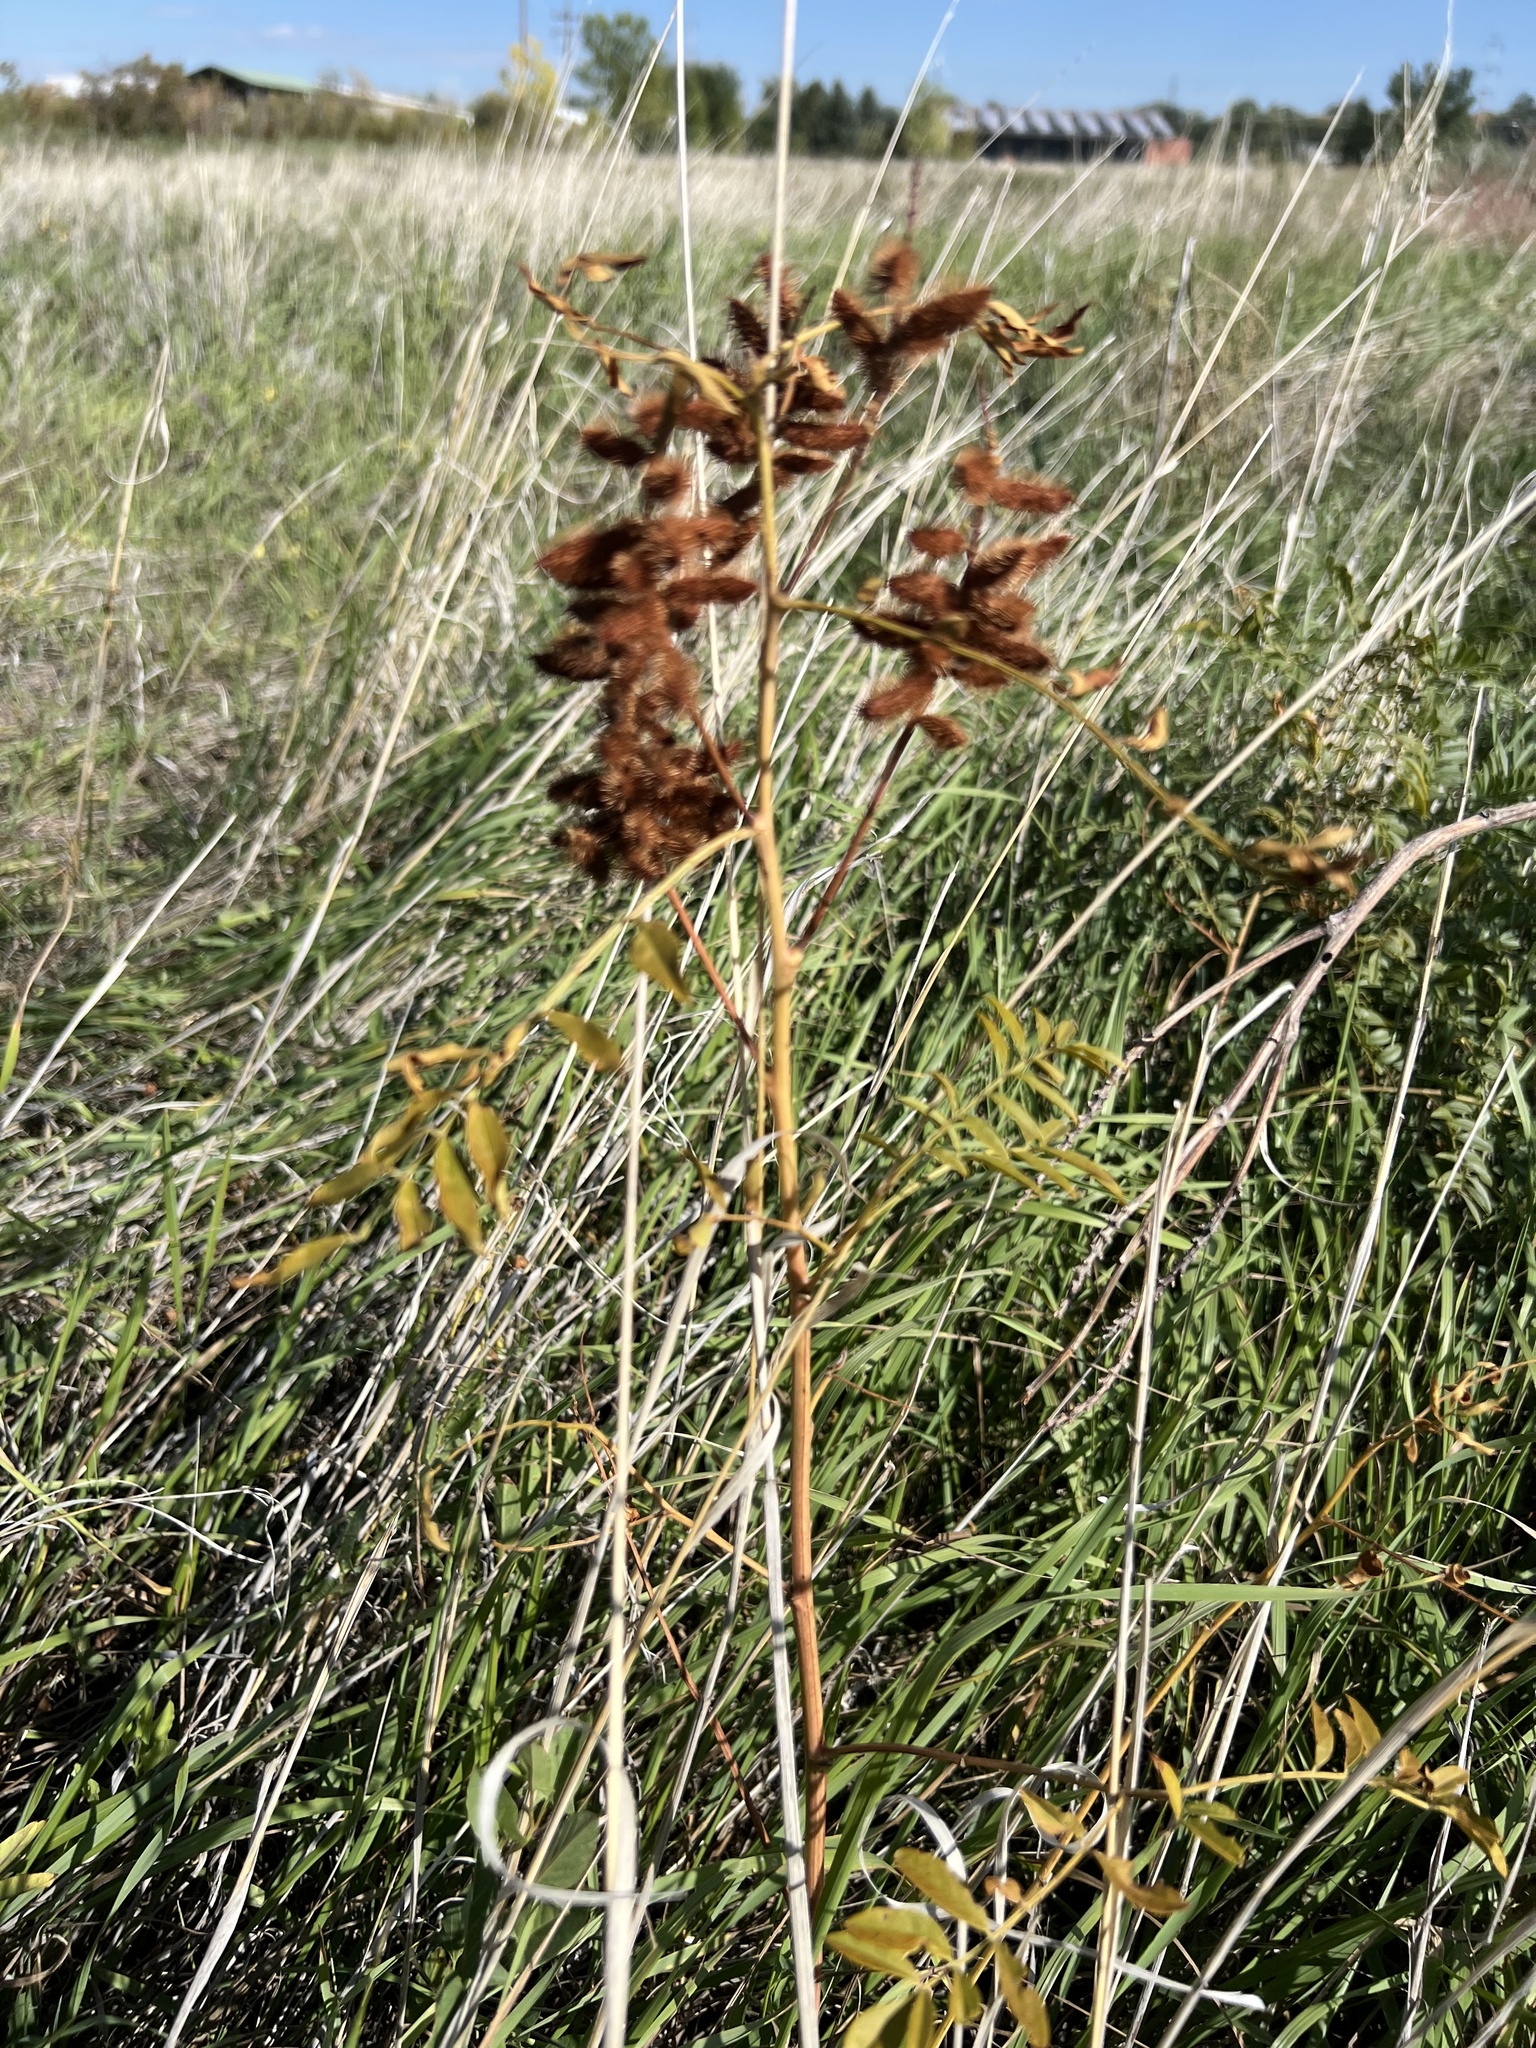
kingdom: Plantae
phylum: Tracheophyta
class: Magnoliopsida
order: Fabales
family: Fabaceae
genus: Glycyrrhiza
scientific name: Glycyrrhiza lepidota
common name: American liquorice
